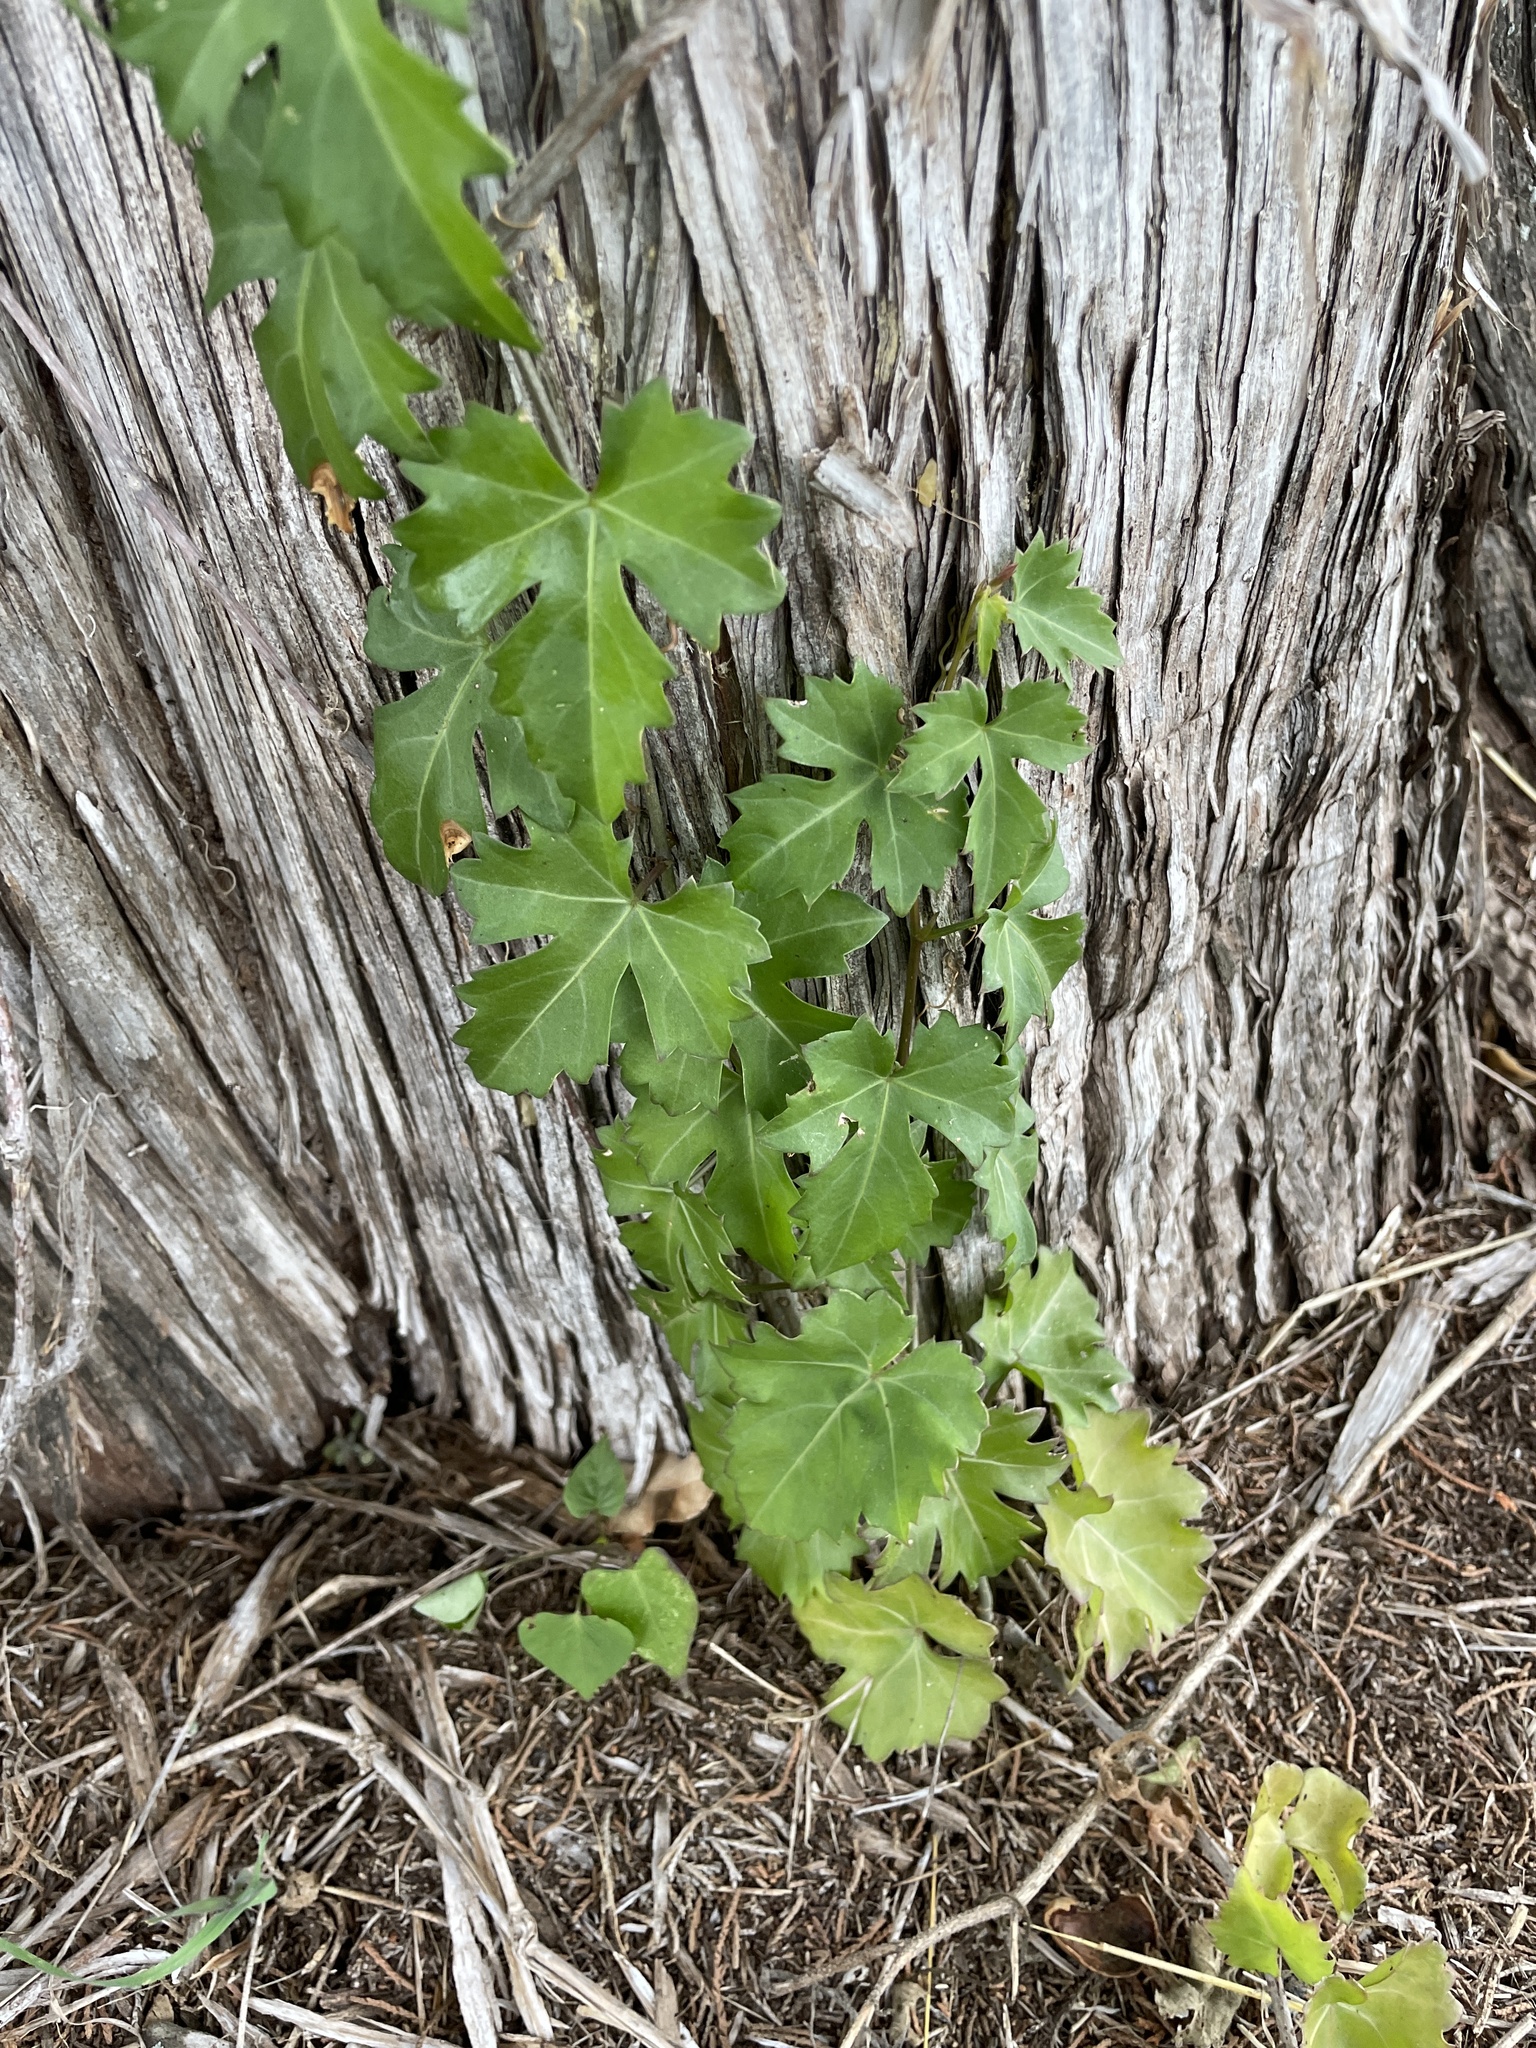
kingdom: Plantae
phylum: Tracheophyta
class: Magnoliopsida
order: Vitales
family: Vitaceae
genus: Cissus
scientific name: Cissus trifoliata
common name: Vine-sorrel
